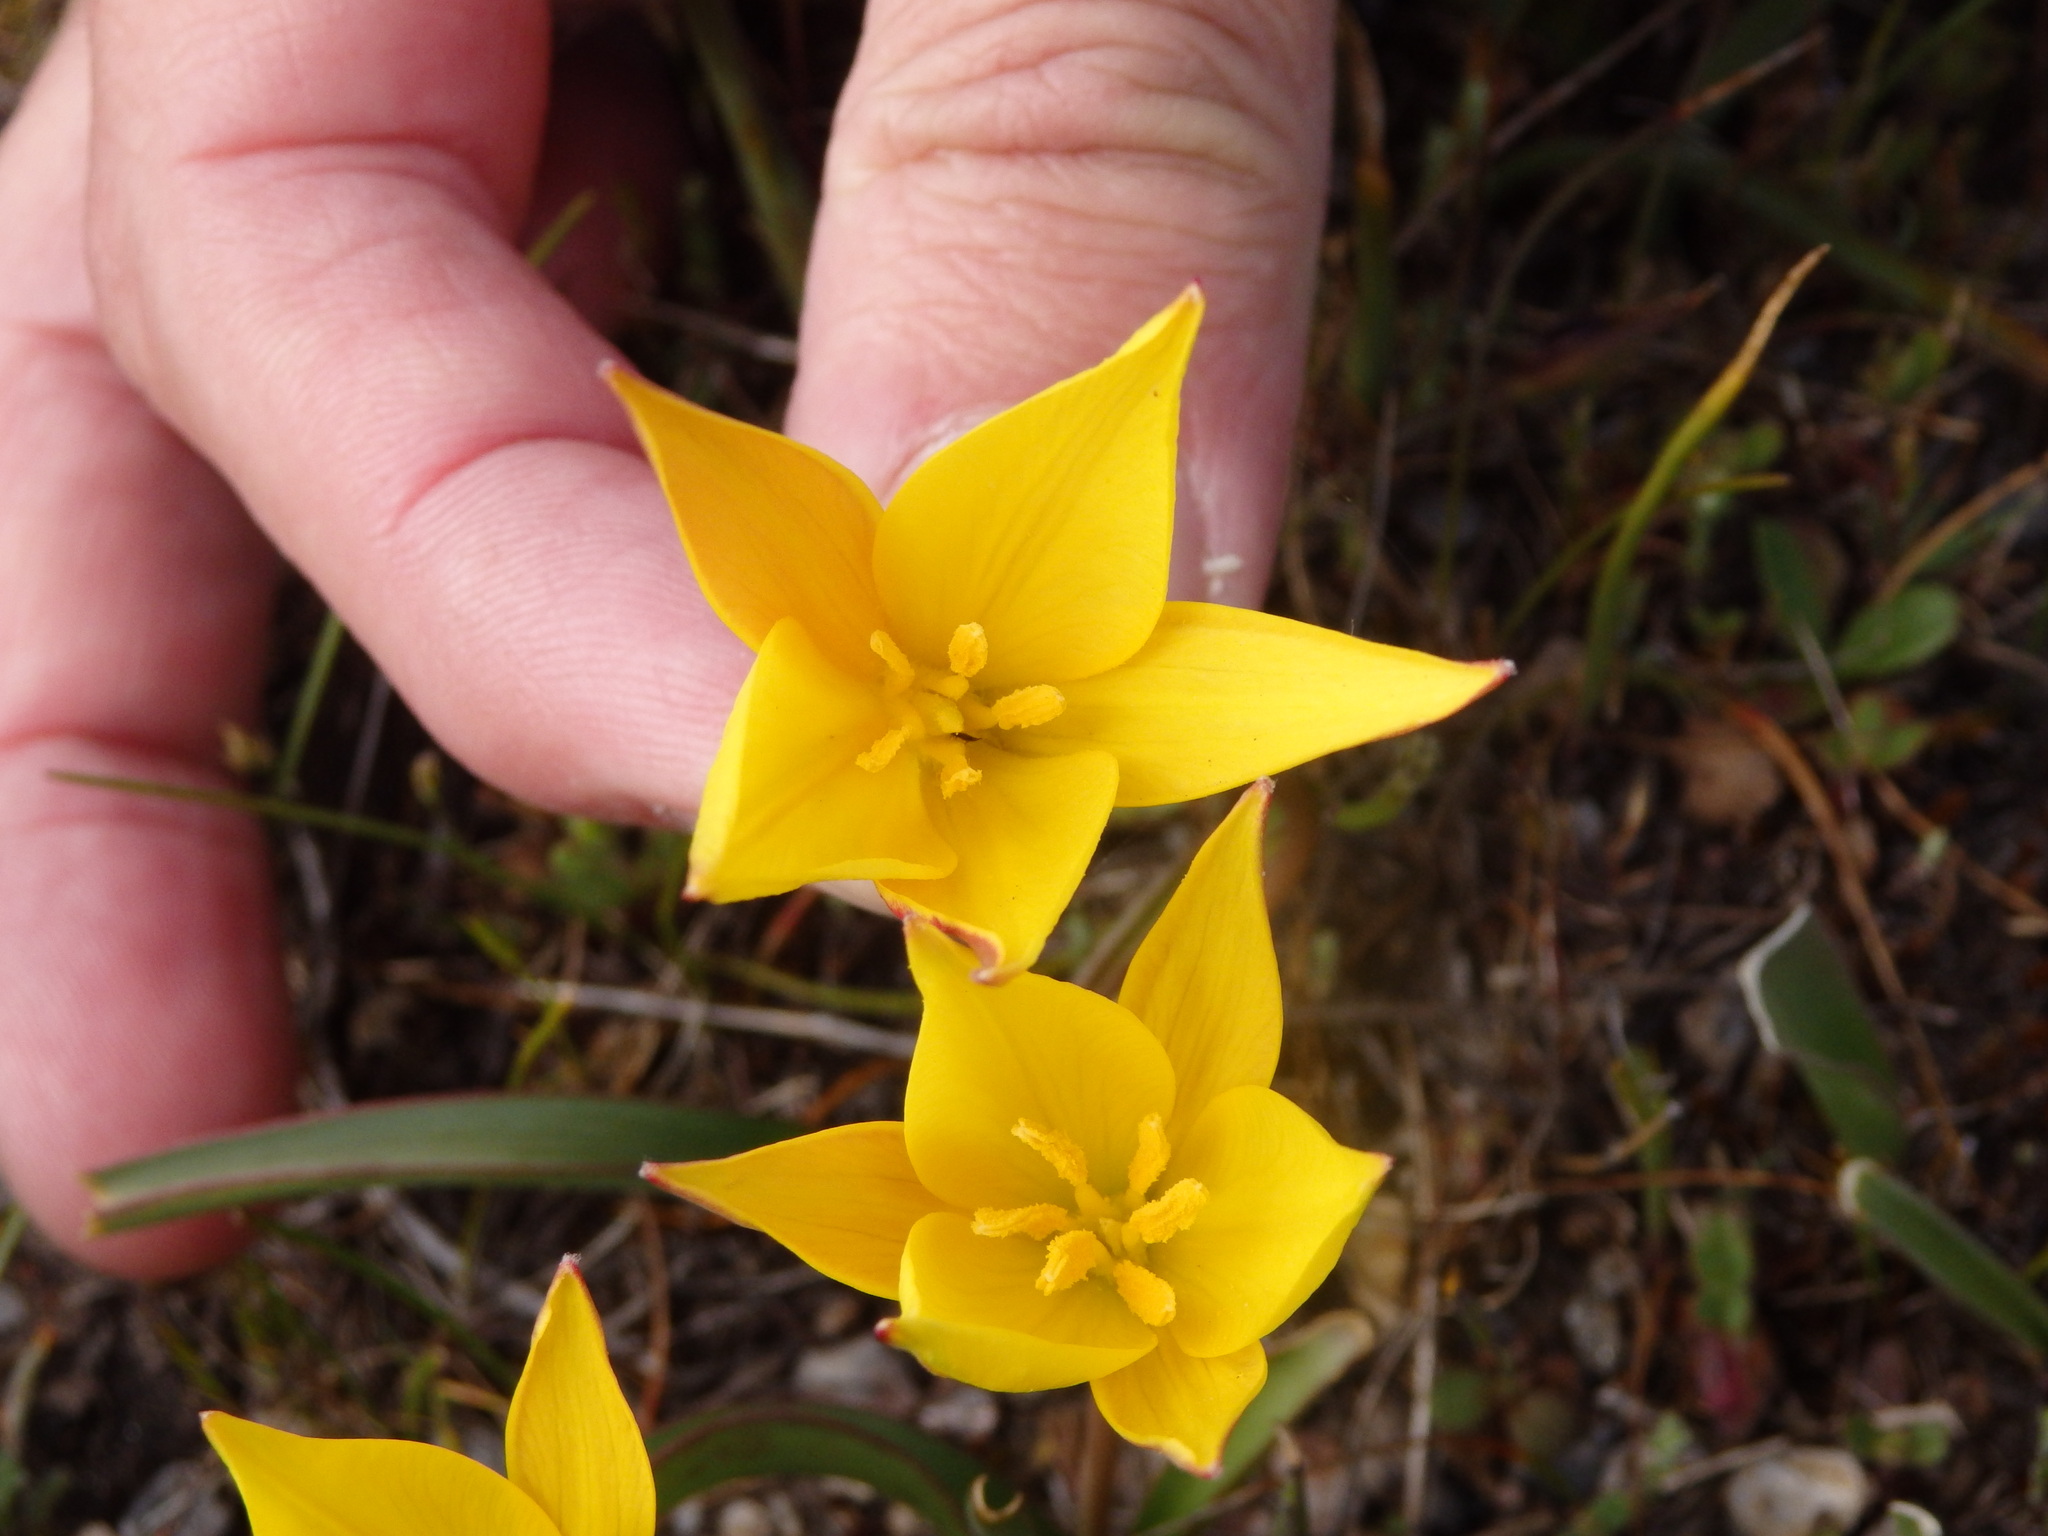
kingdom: Plantae
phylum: Tracheophyta
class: Liliopsida
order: Liliales
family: Liliaceae
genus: Tulipa
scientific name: Tulipa sylvestris
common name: Wild tulip
